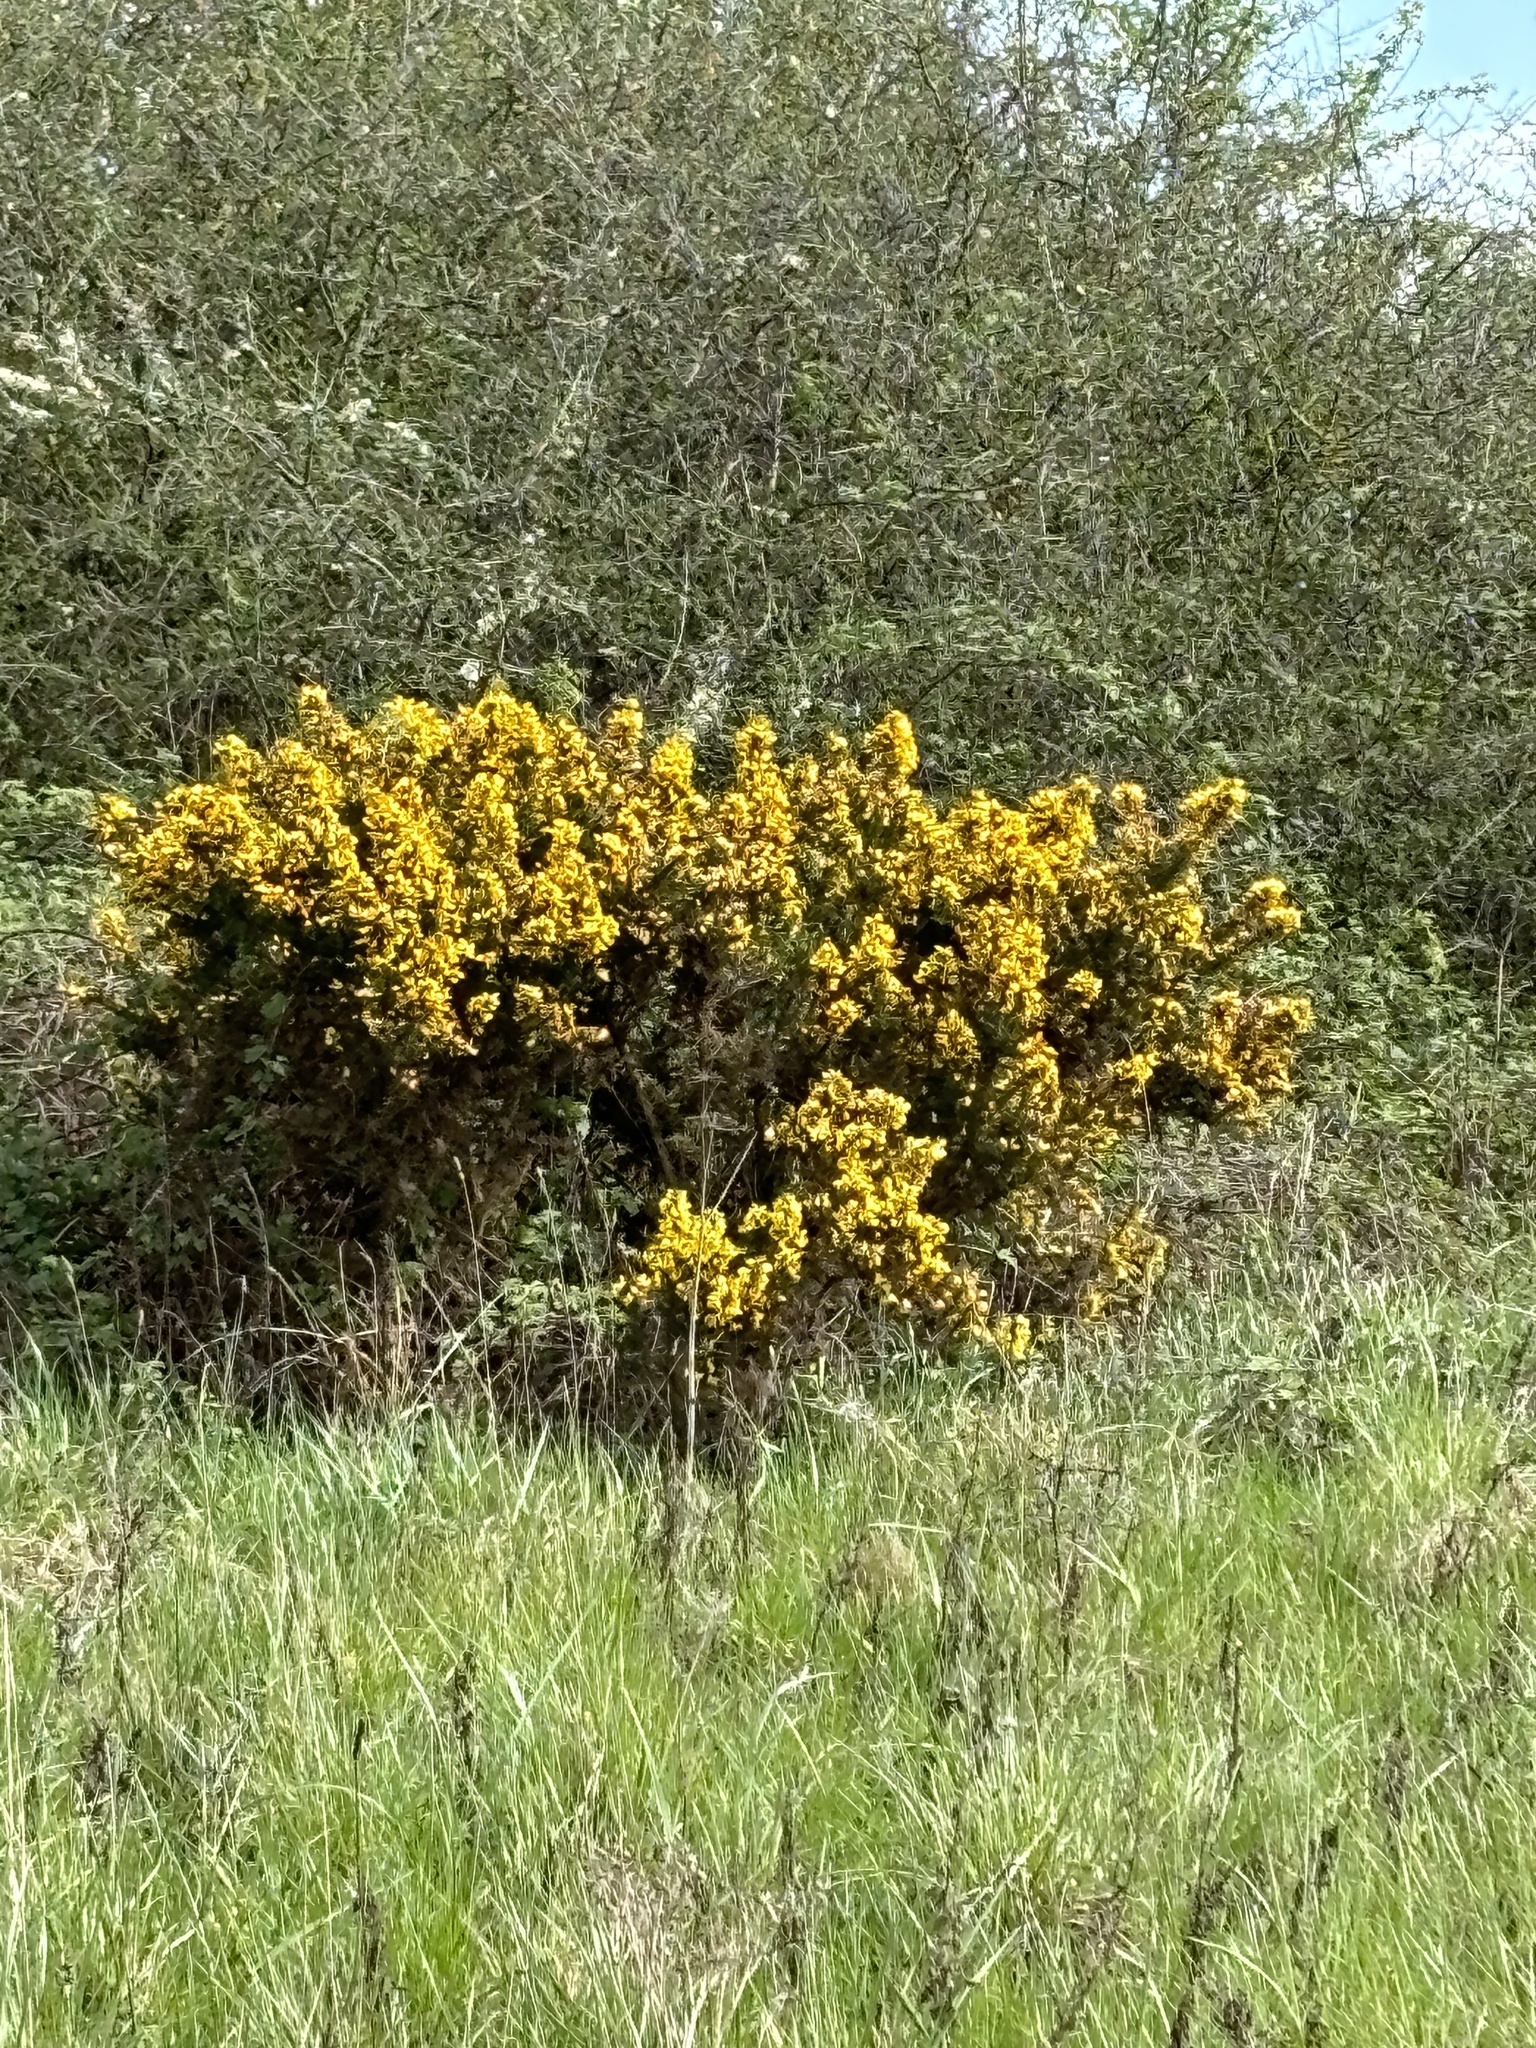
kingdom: Plantae
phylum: Tracheophyta
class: Magnoliopsida
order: Fabales
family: Fabaceae
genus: Ulex
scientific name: Ulex europaeus
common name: Common gorse
